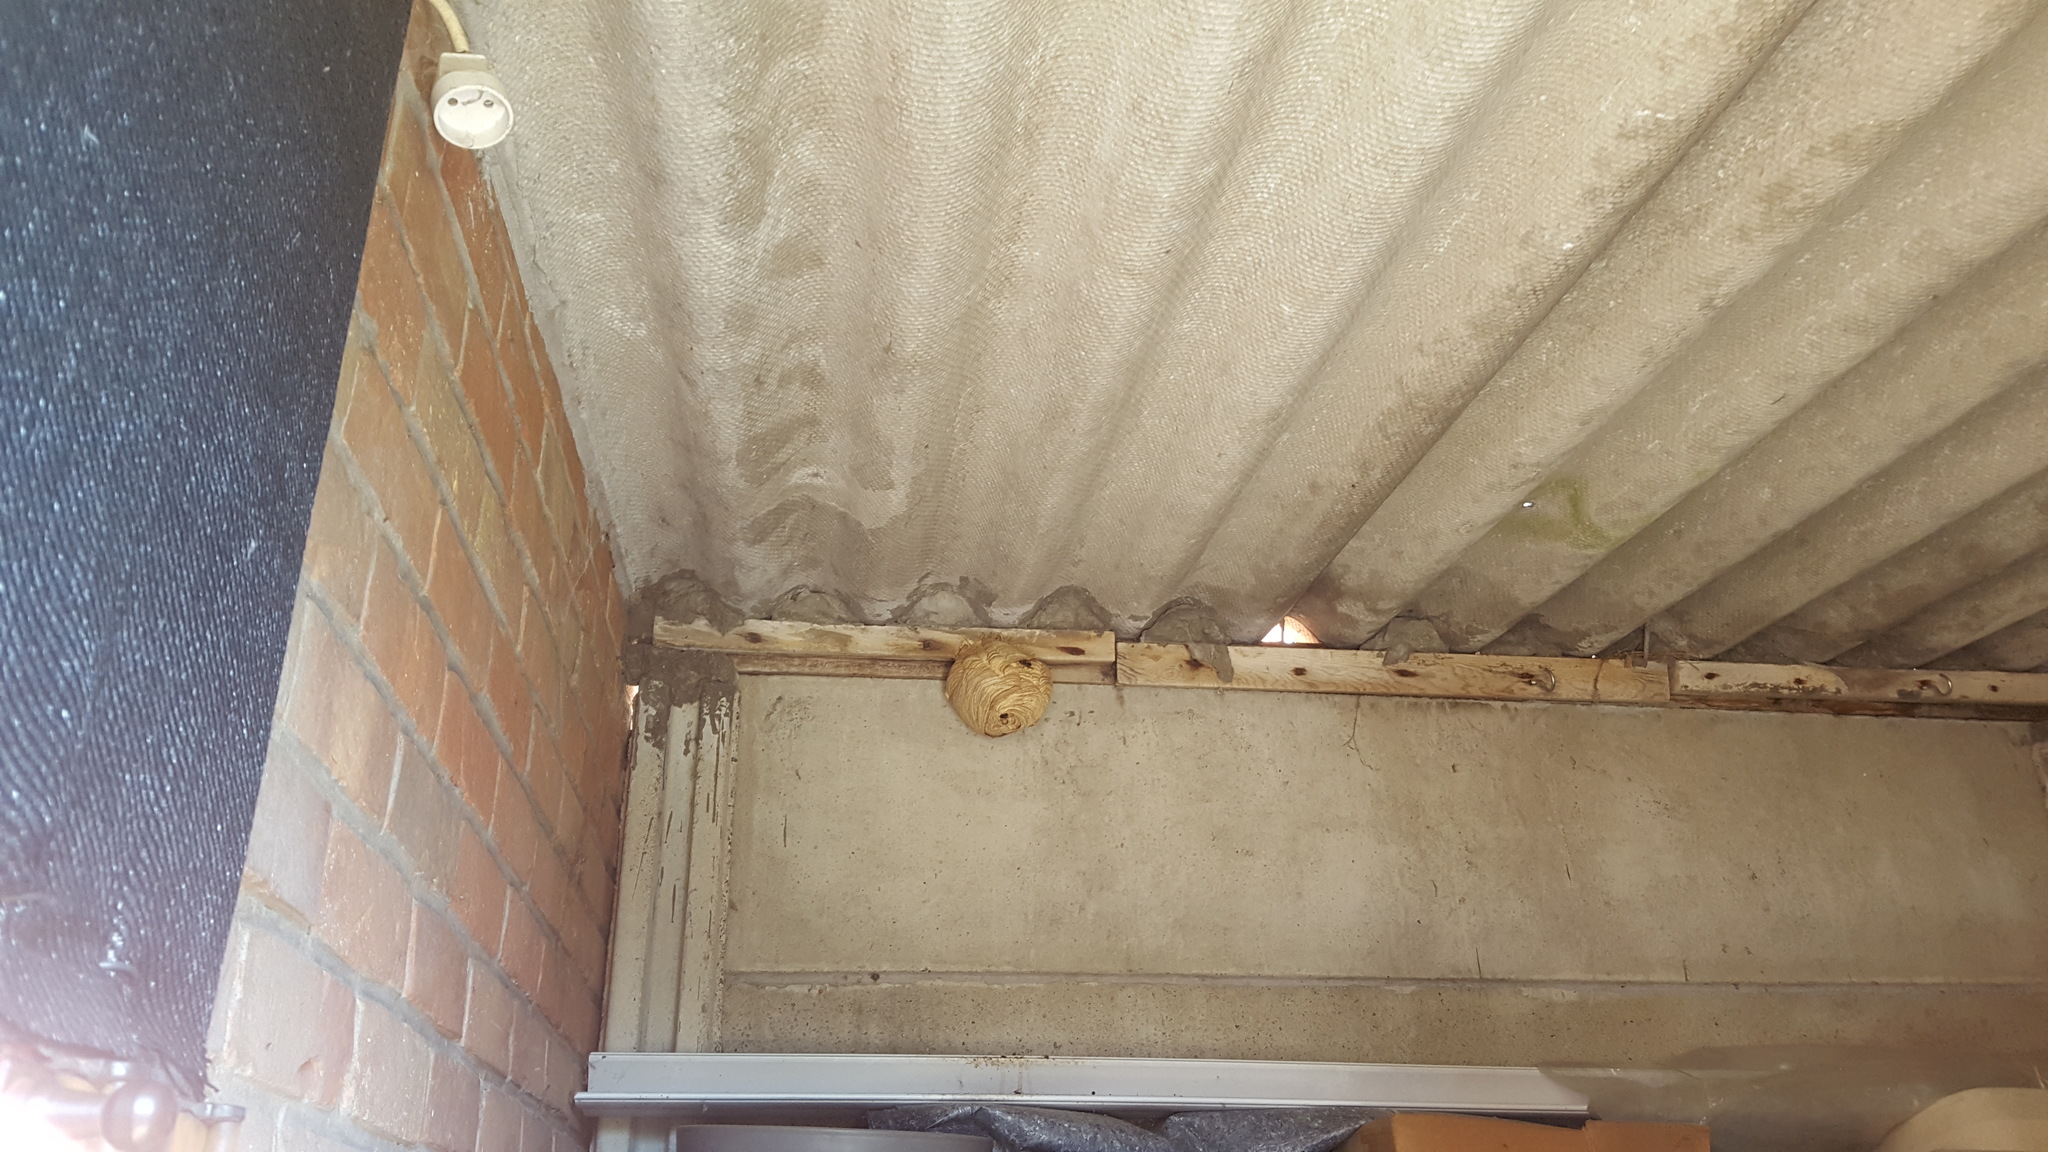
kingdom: Animalia
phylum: Arthropoda
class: Insecta
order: Hymenoptera
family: Vespidae
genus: Vespa
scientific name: Vespa velutina
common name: Asian hornet
